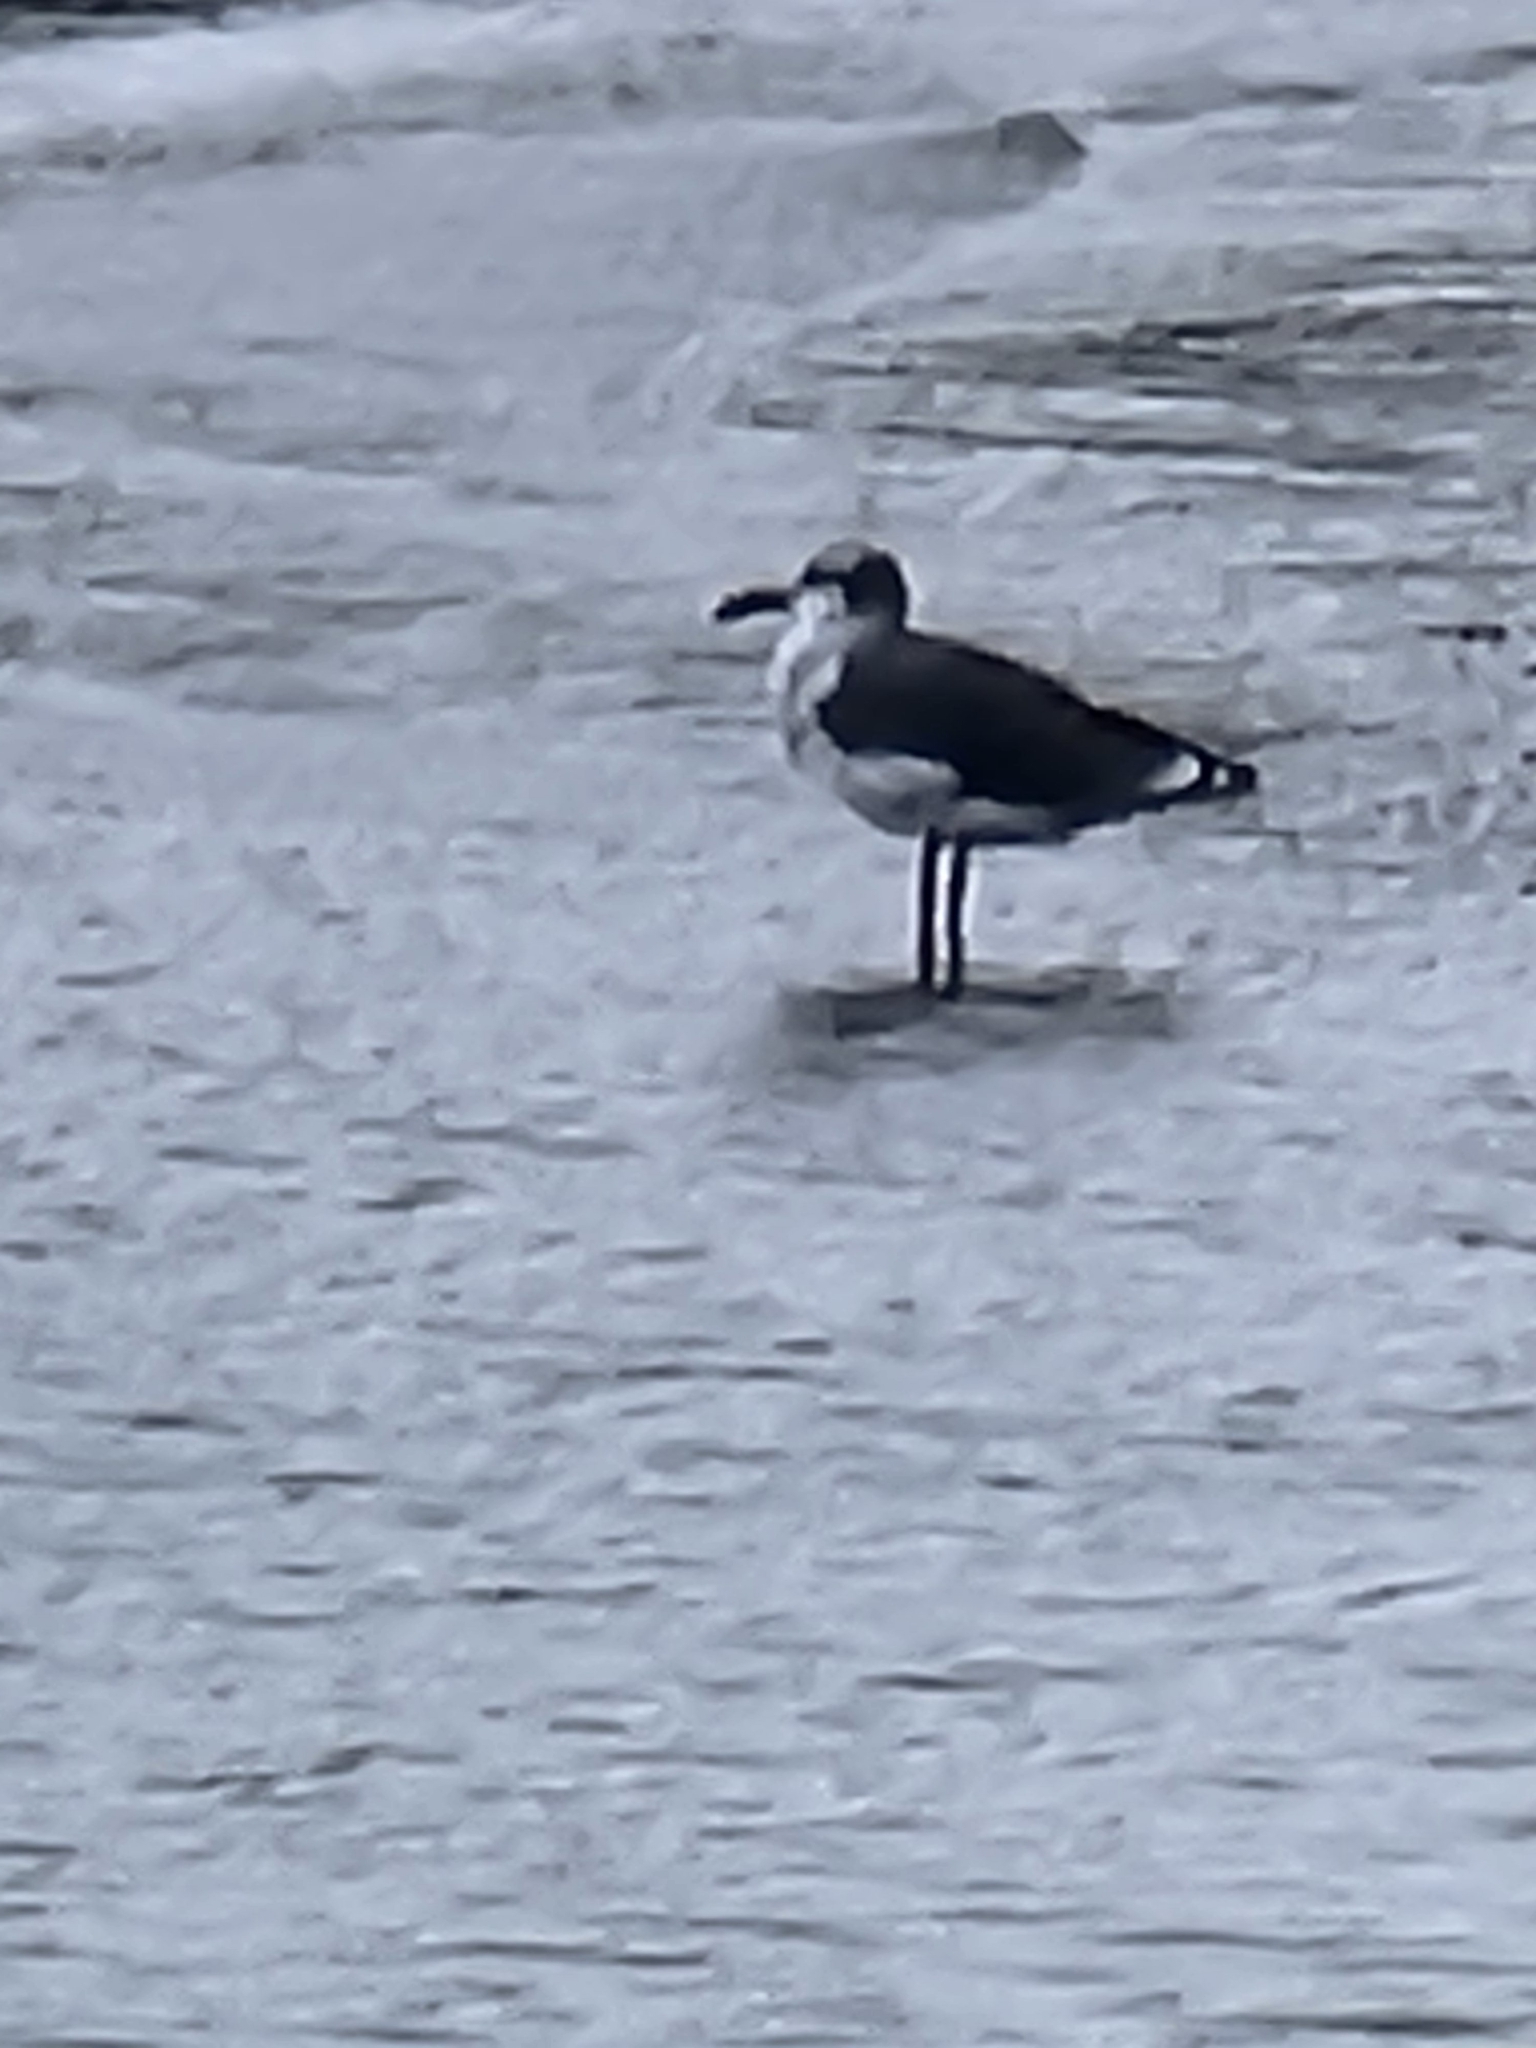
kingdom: Animalia
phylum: Chordata
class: Aves
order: Charadriiformes
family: Laridae
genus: Leucophaeus
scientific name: Leucophaeus atricilla
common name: Laughing gull
